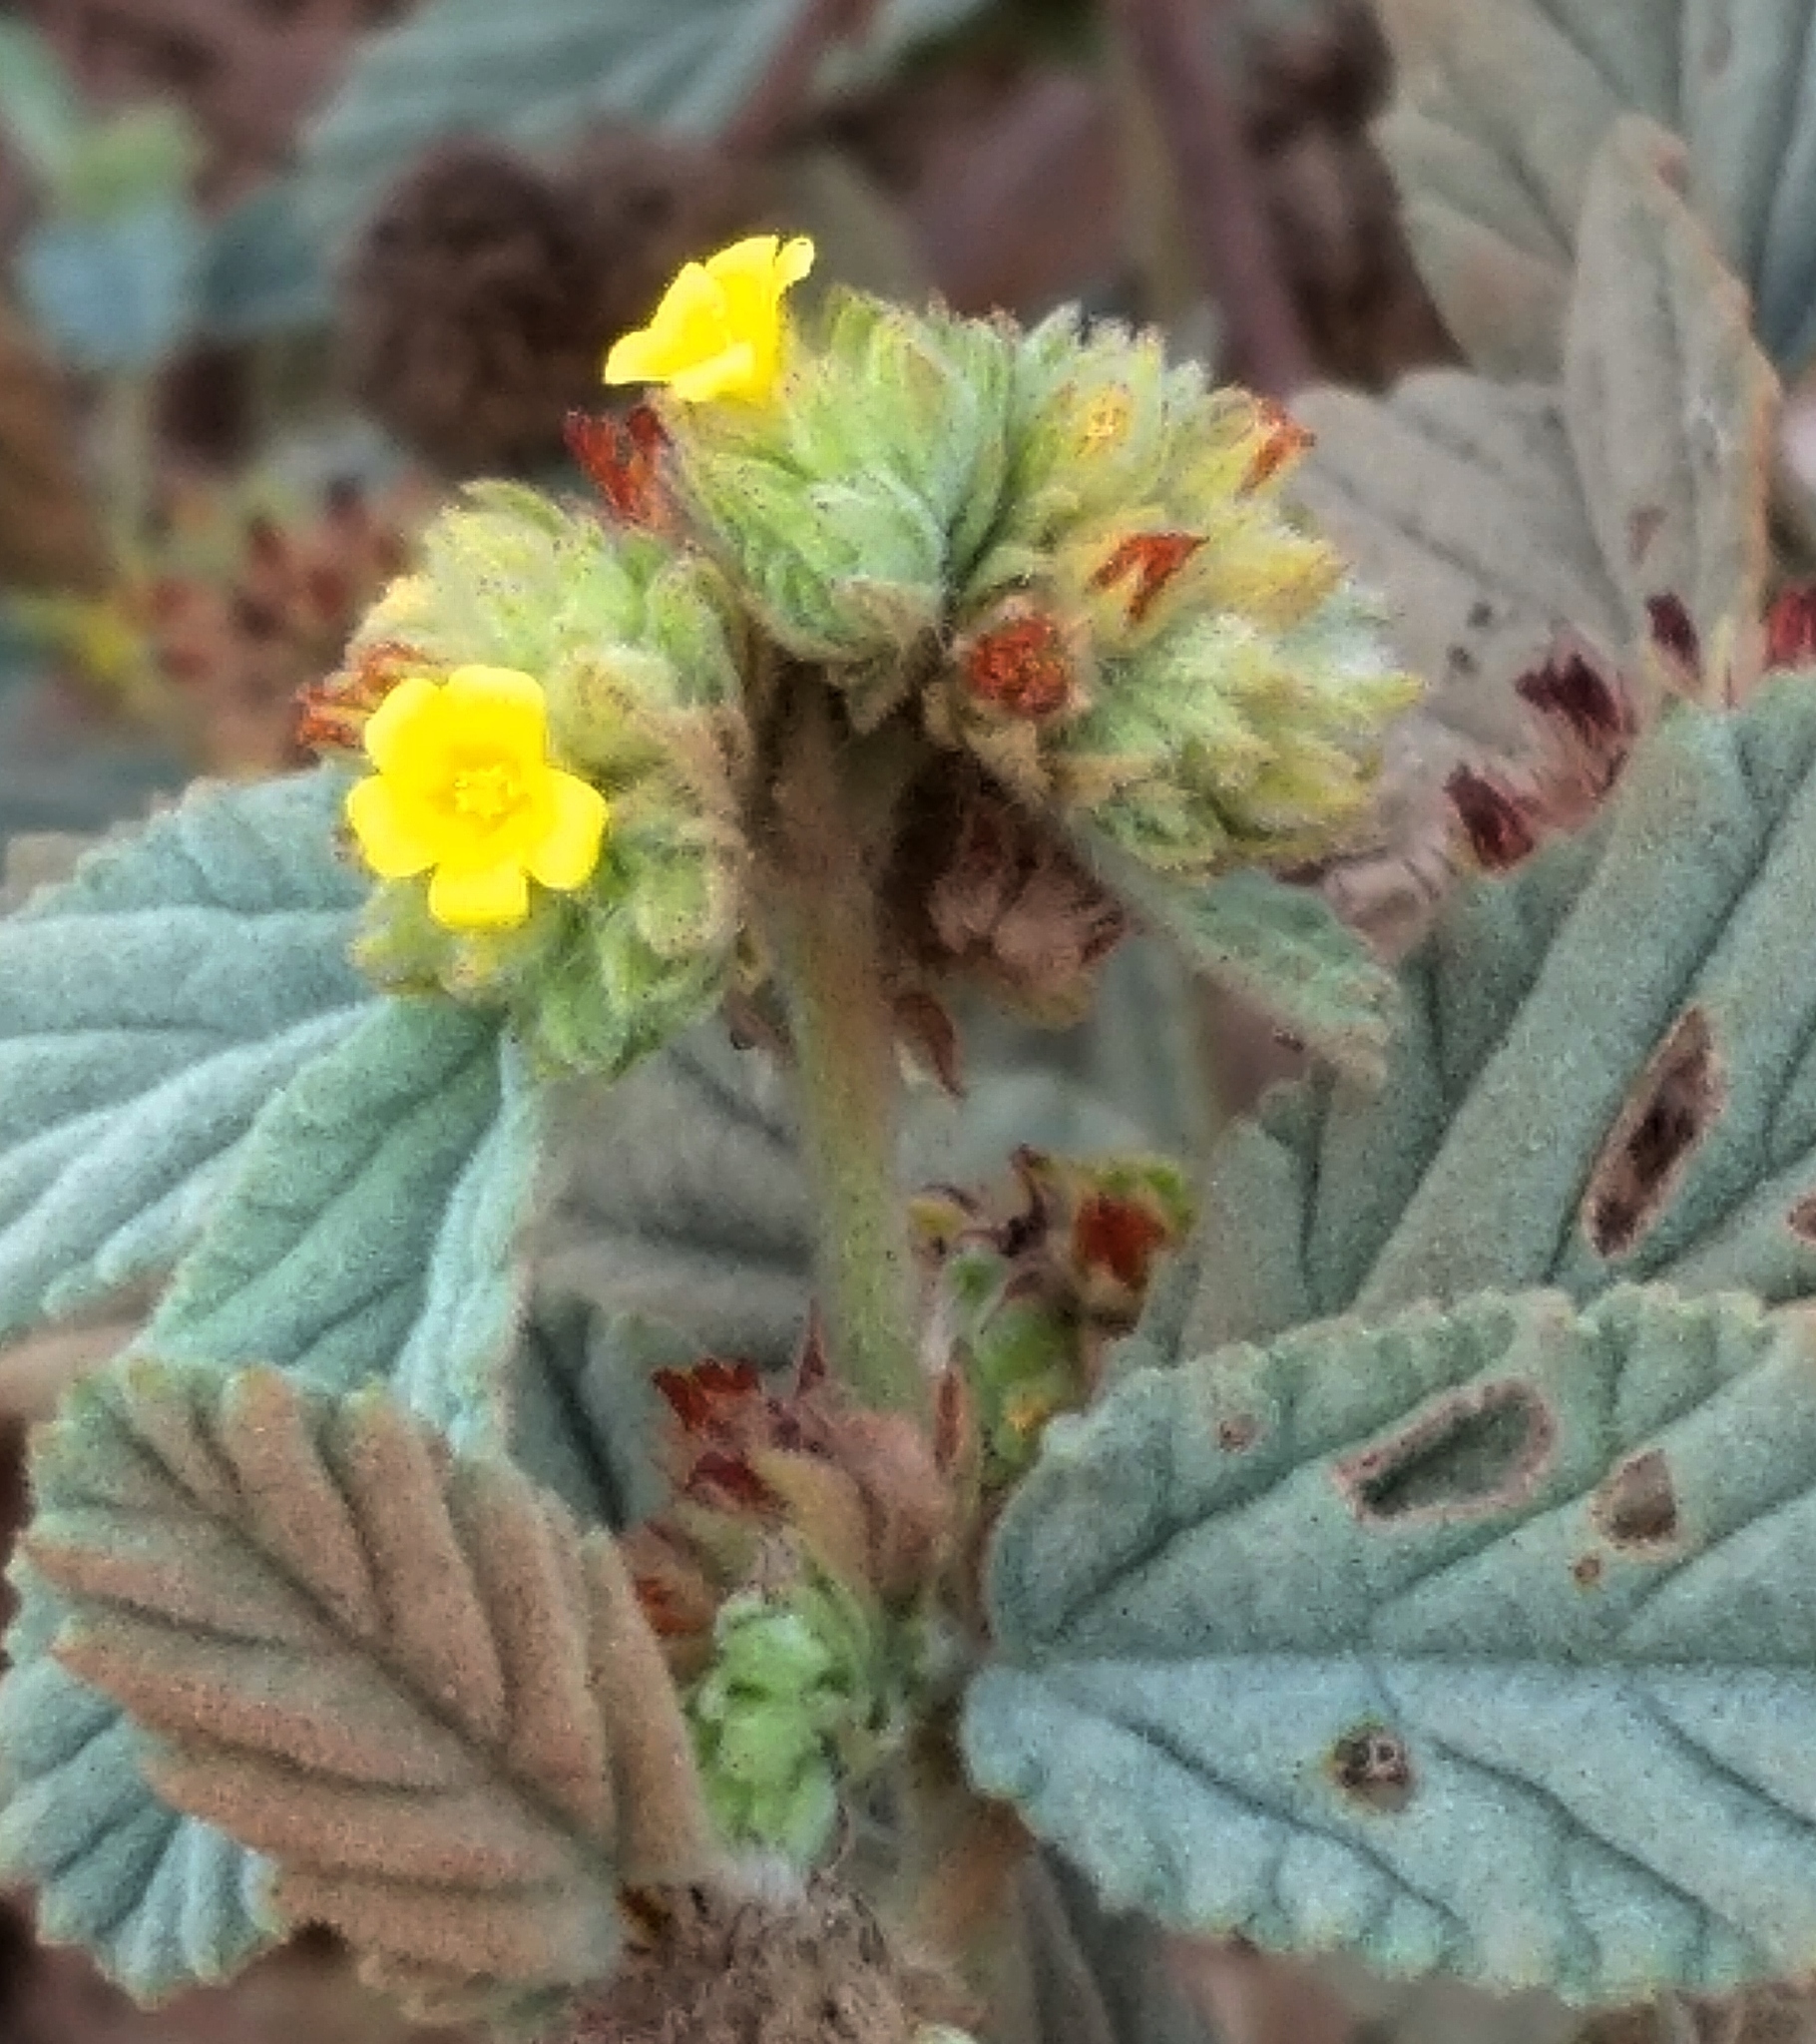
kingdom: Plantae
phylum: Tracheophyta
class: Magnoliopsida
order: Malvales
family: Malvaceae
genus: Waltheria
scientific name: Waltheria indica
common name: Leather-coat
